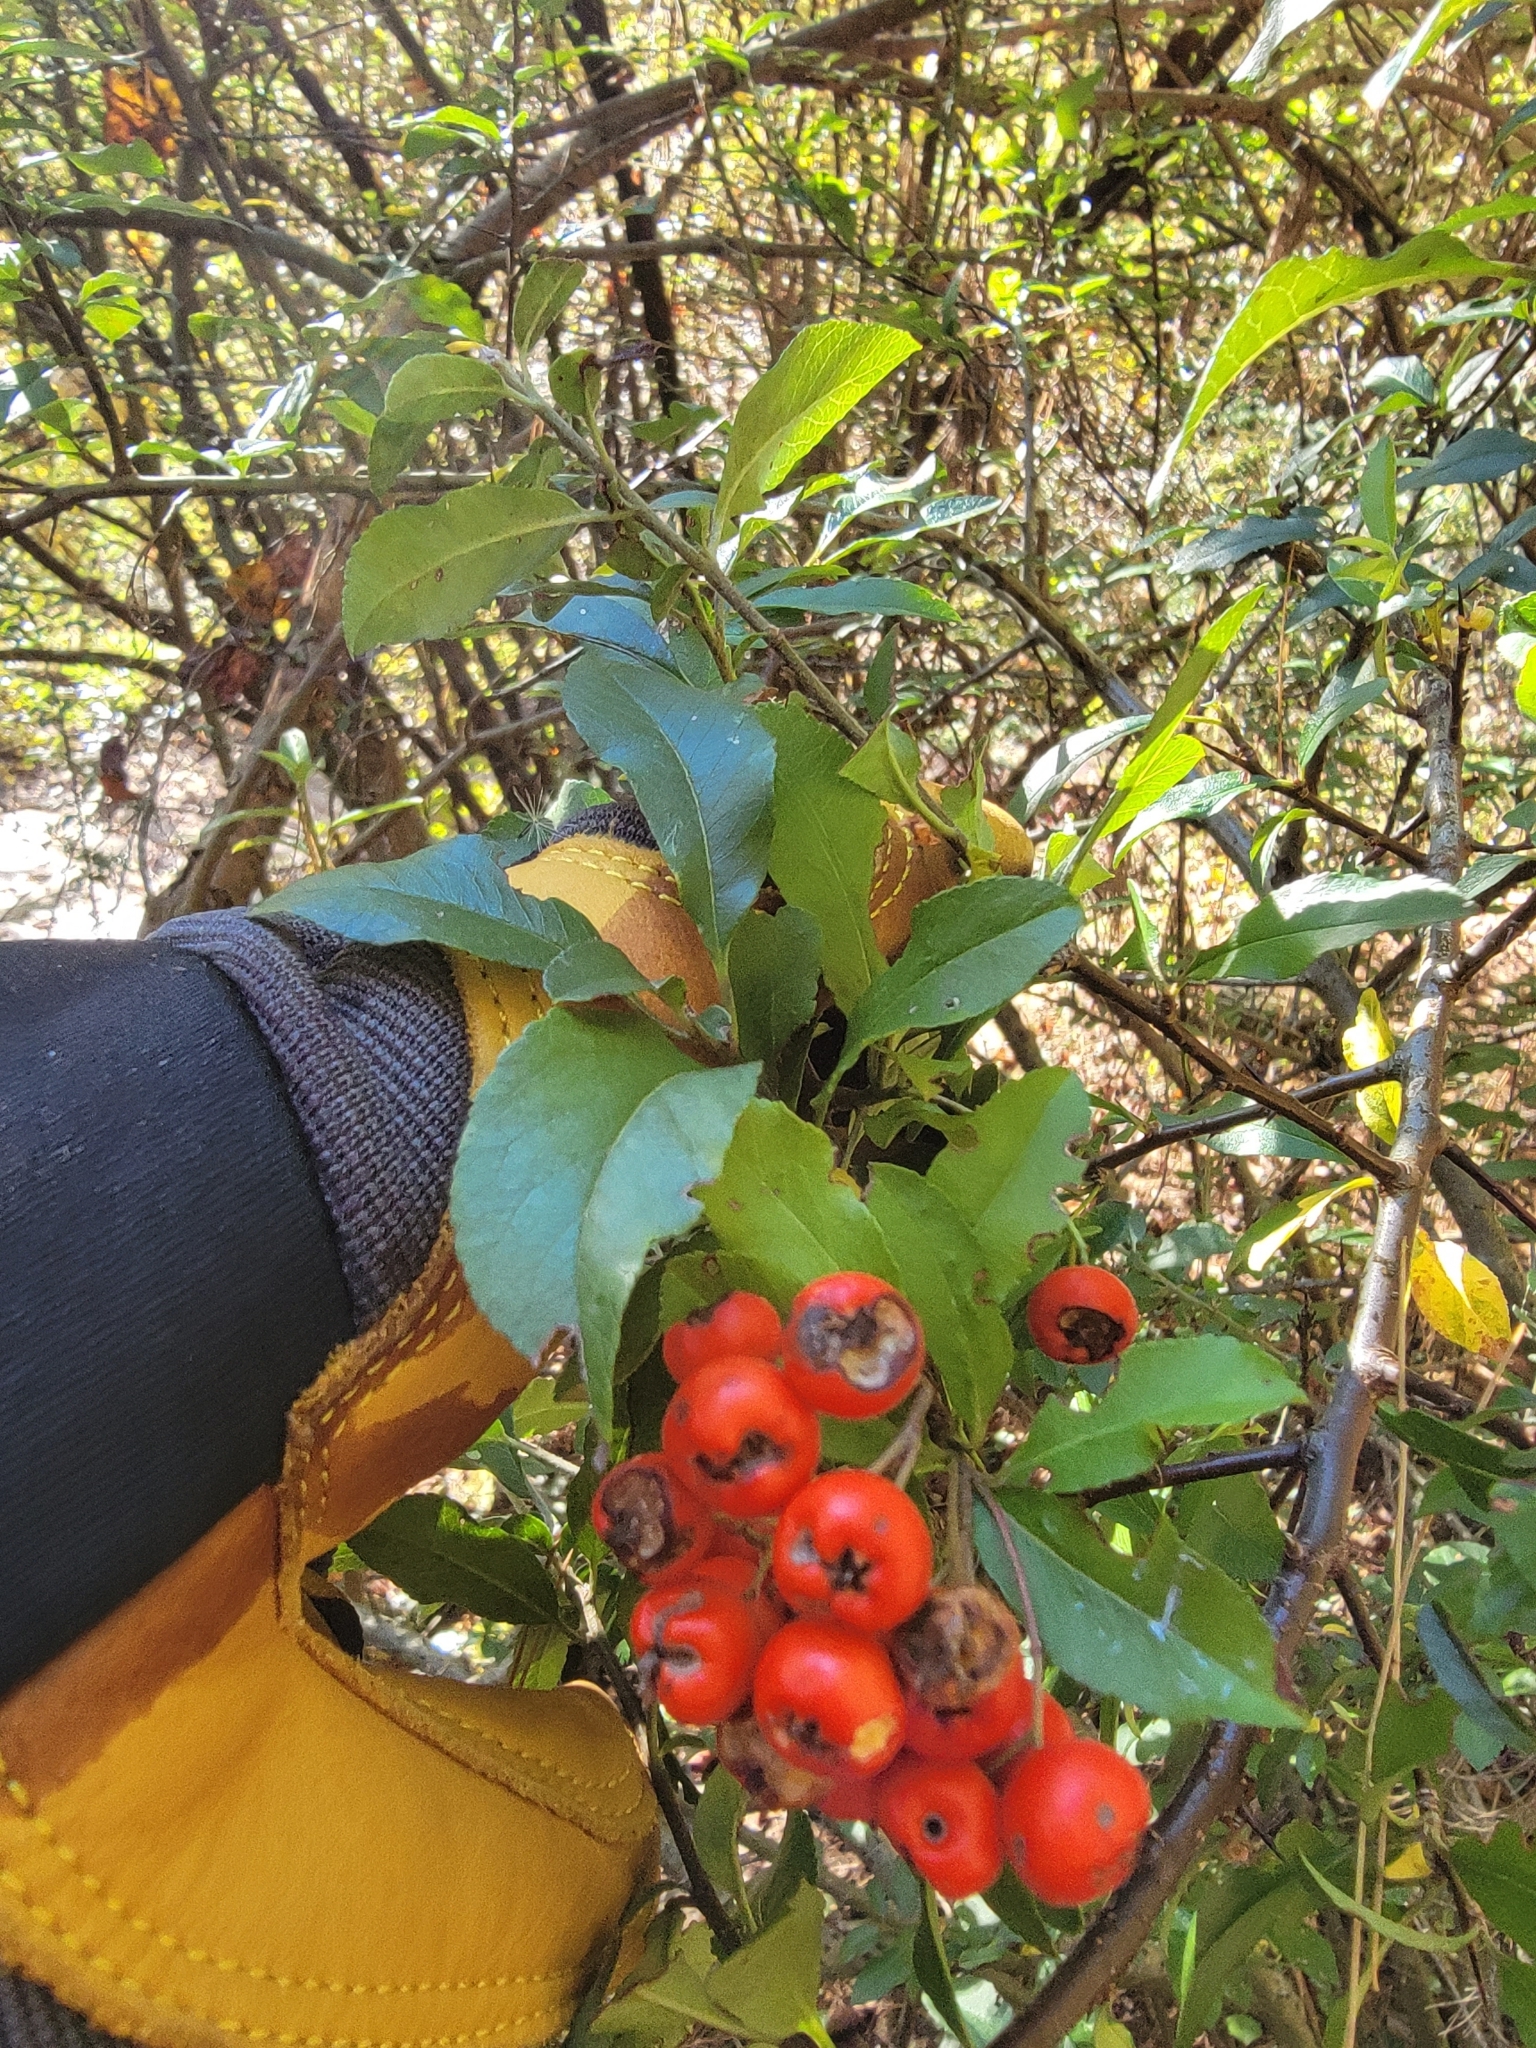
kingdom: Plantae
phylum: Tracheophyta
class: Magnoliopsida
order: Rosales
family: Rosaceae
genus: Pyracantha
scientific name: Pyracantha coccinea
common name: Firethorn
